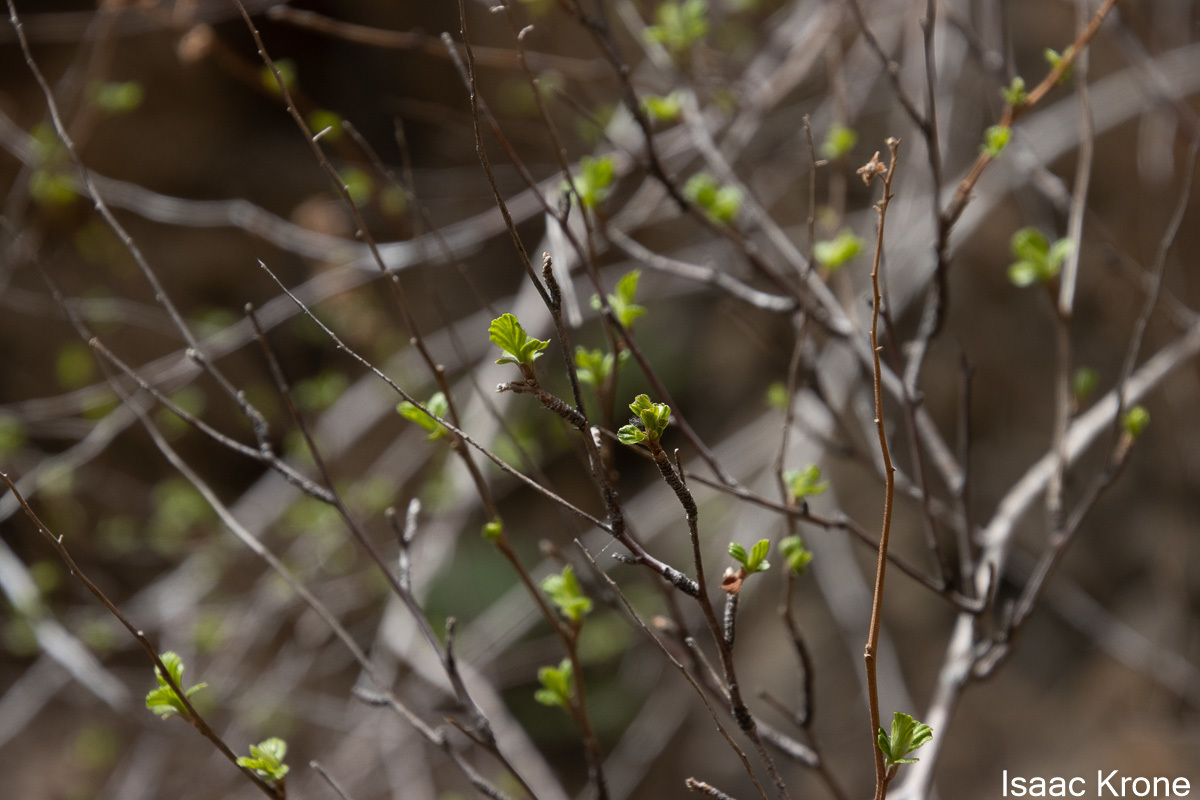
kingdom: Plantae
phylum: Tracheophyta
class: Magnoliopsida
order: Sapindales
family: Anacardiaceae
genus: Rhus
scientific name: Rhus aromatica
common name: Aromatic sumac
